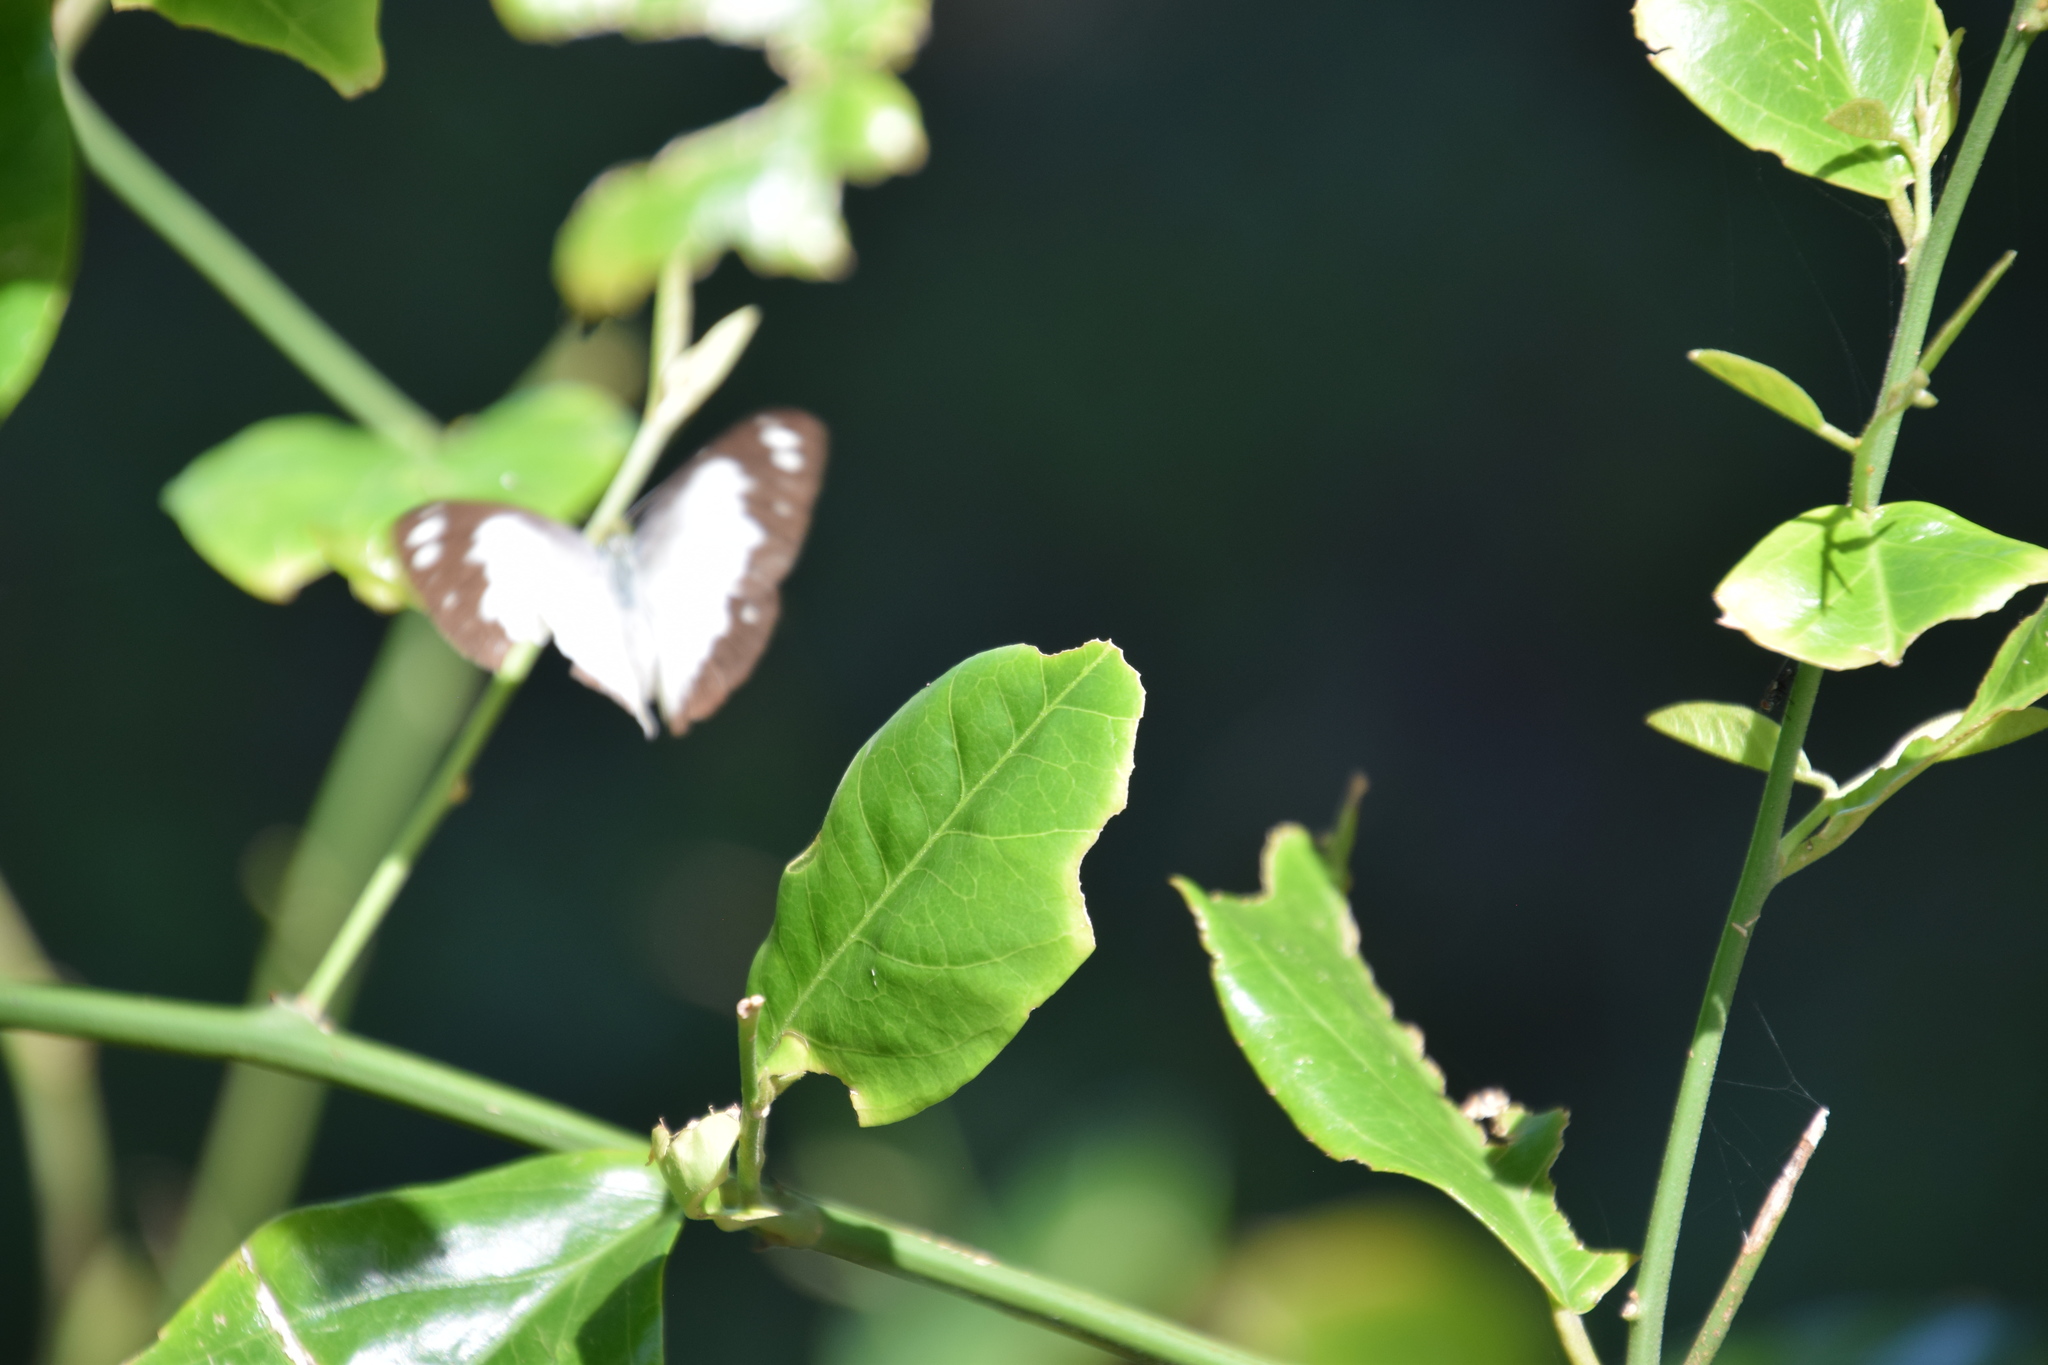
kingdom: Animalia
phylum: Arthropoda
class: Insecta
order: Lepidoptera
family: Pieridae
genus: Cepora
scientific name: Cepora perimale
